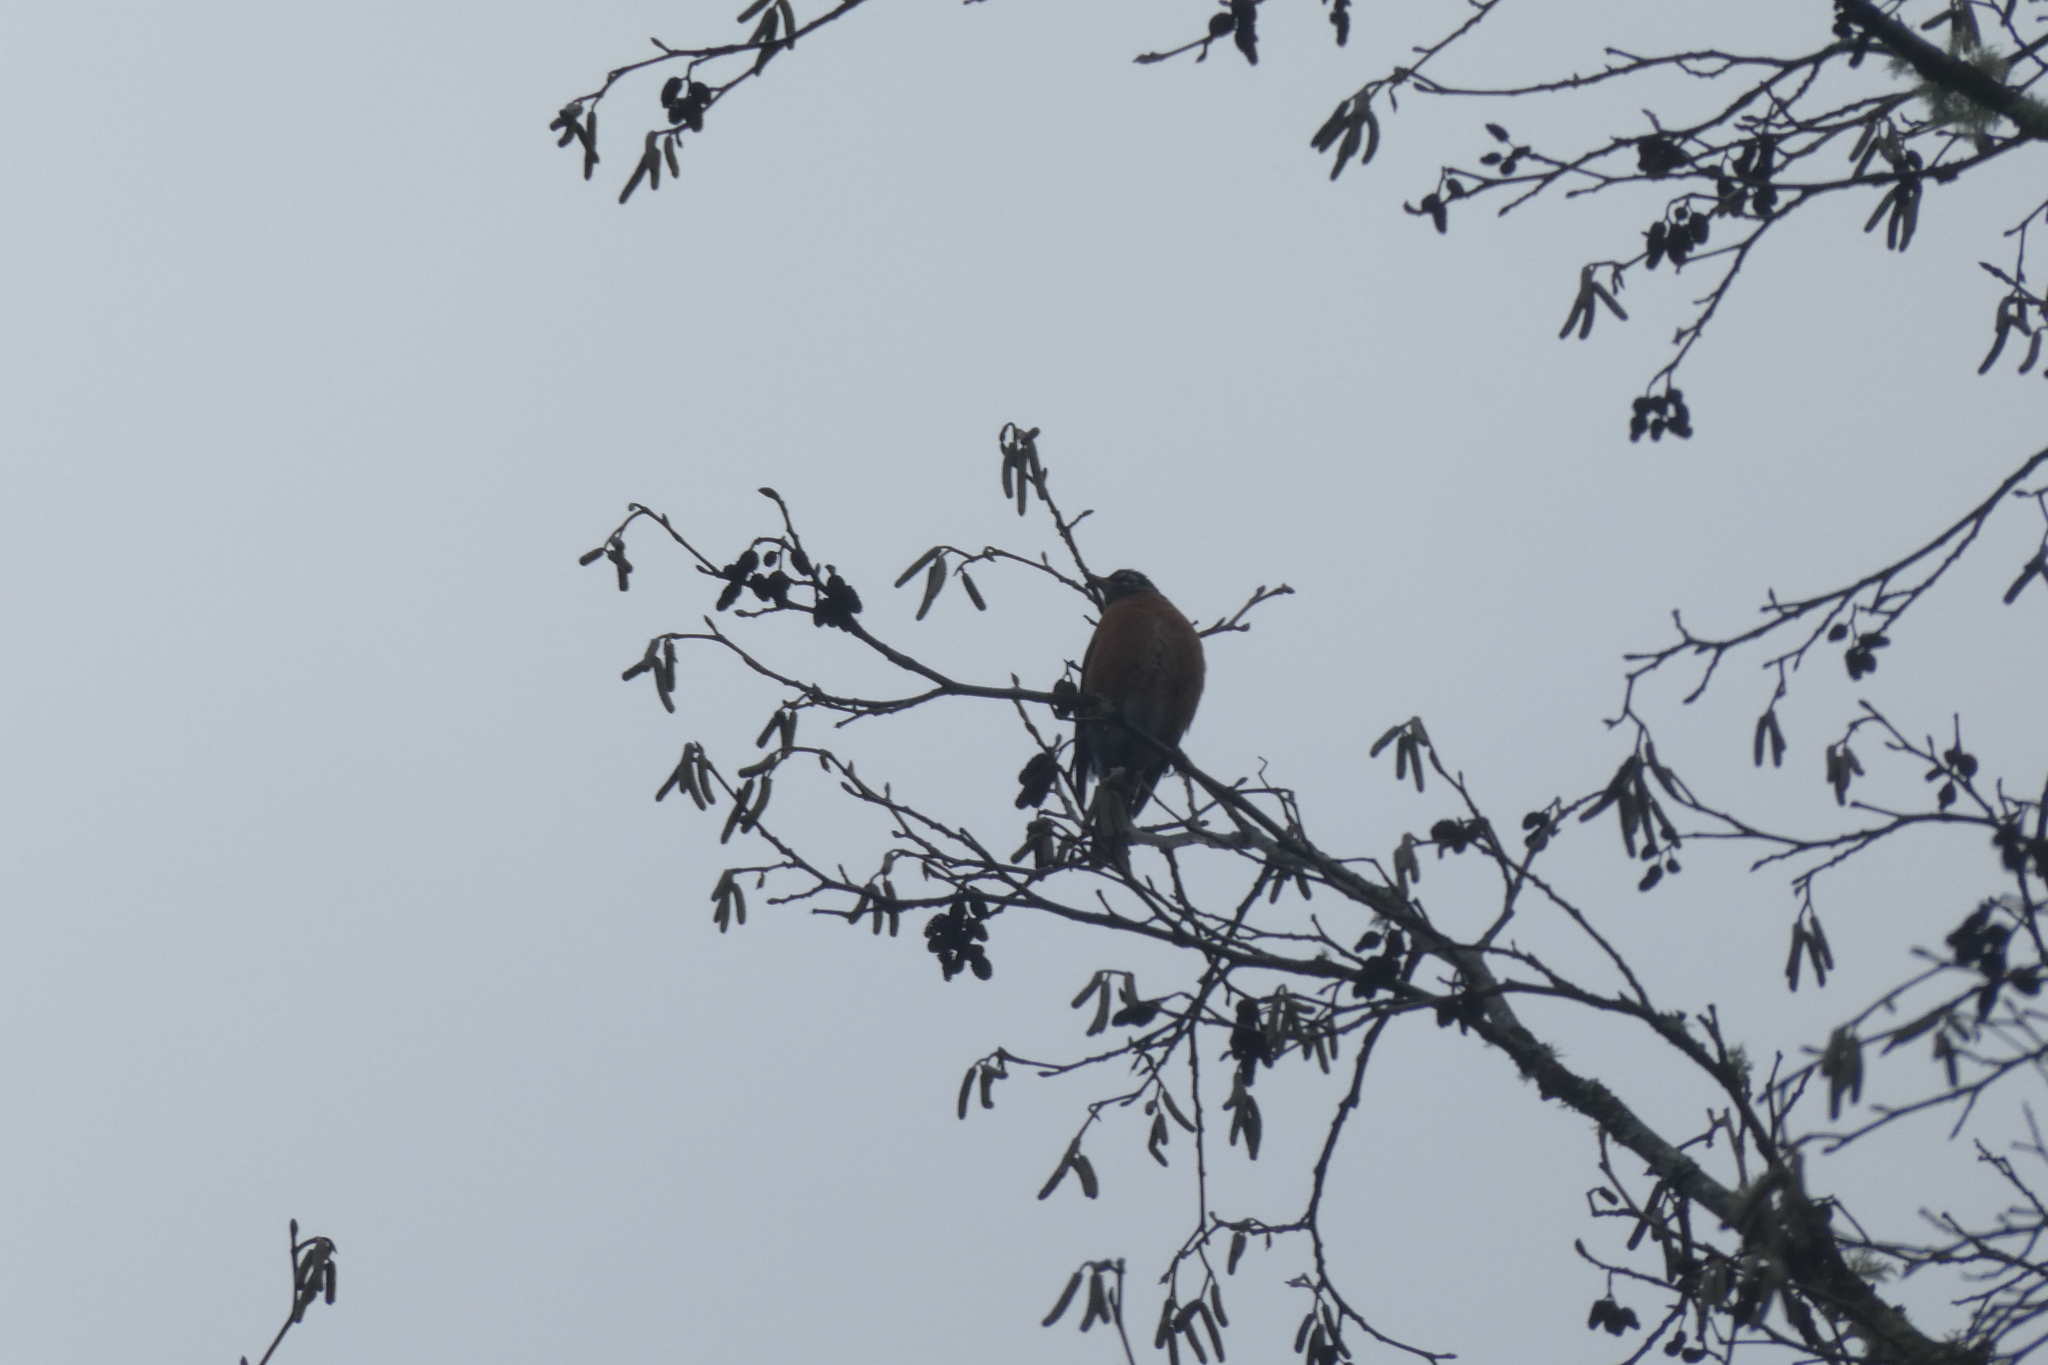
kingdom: Animalia
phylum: Chordata
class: Aves
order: Passeriformes
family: Turdidae
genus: Turdus
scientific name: Turdus migratorius
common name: American robin
